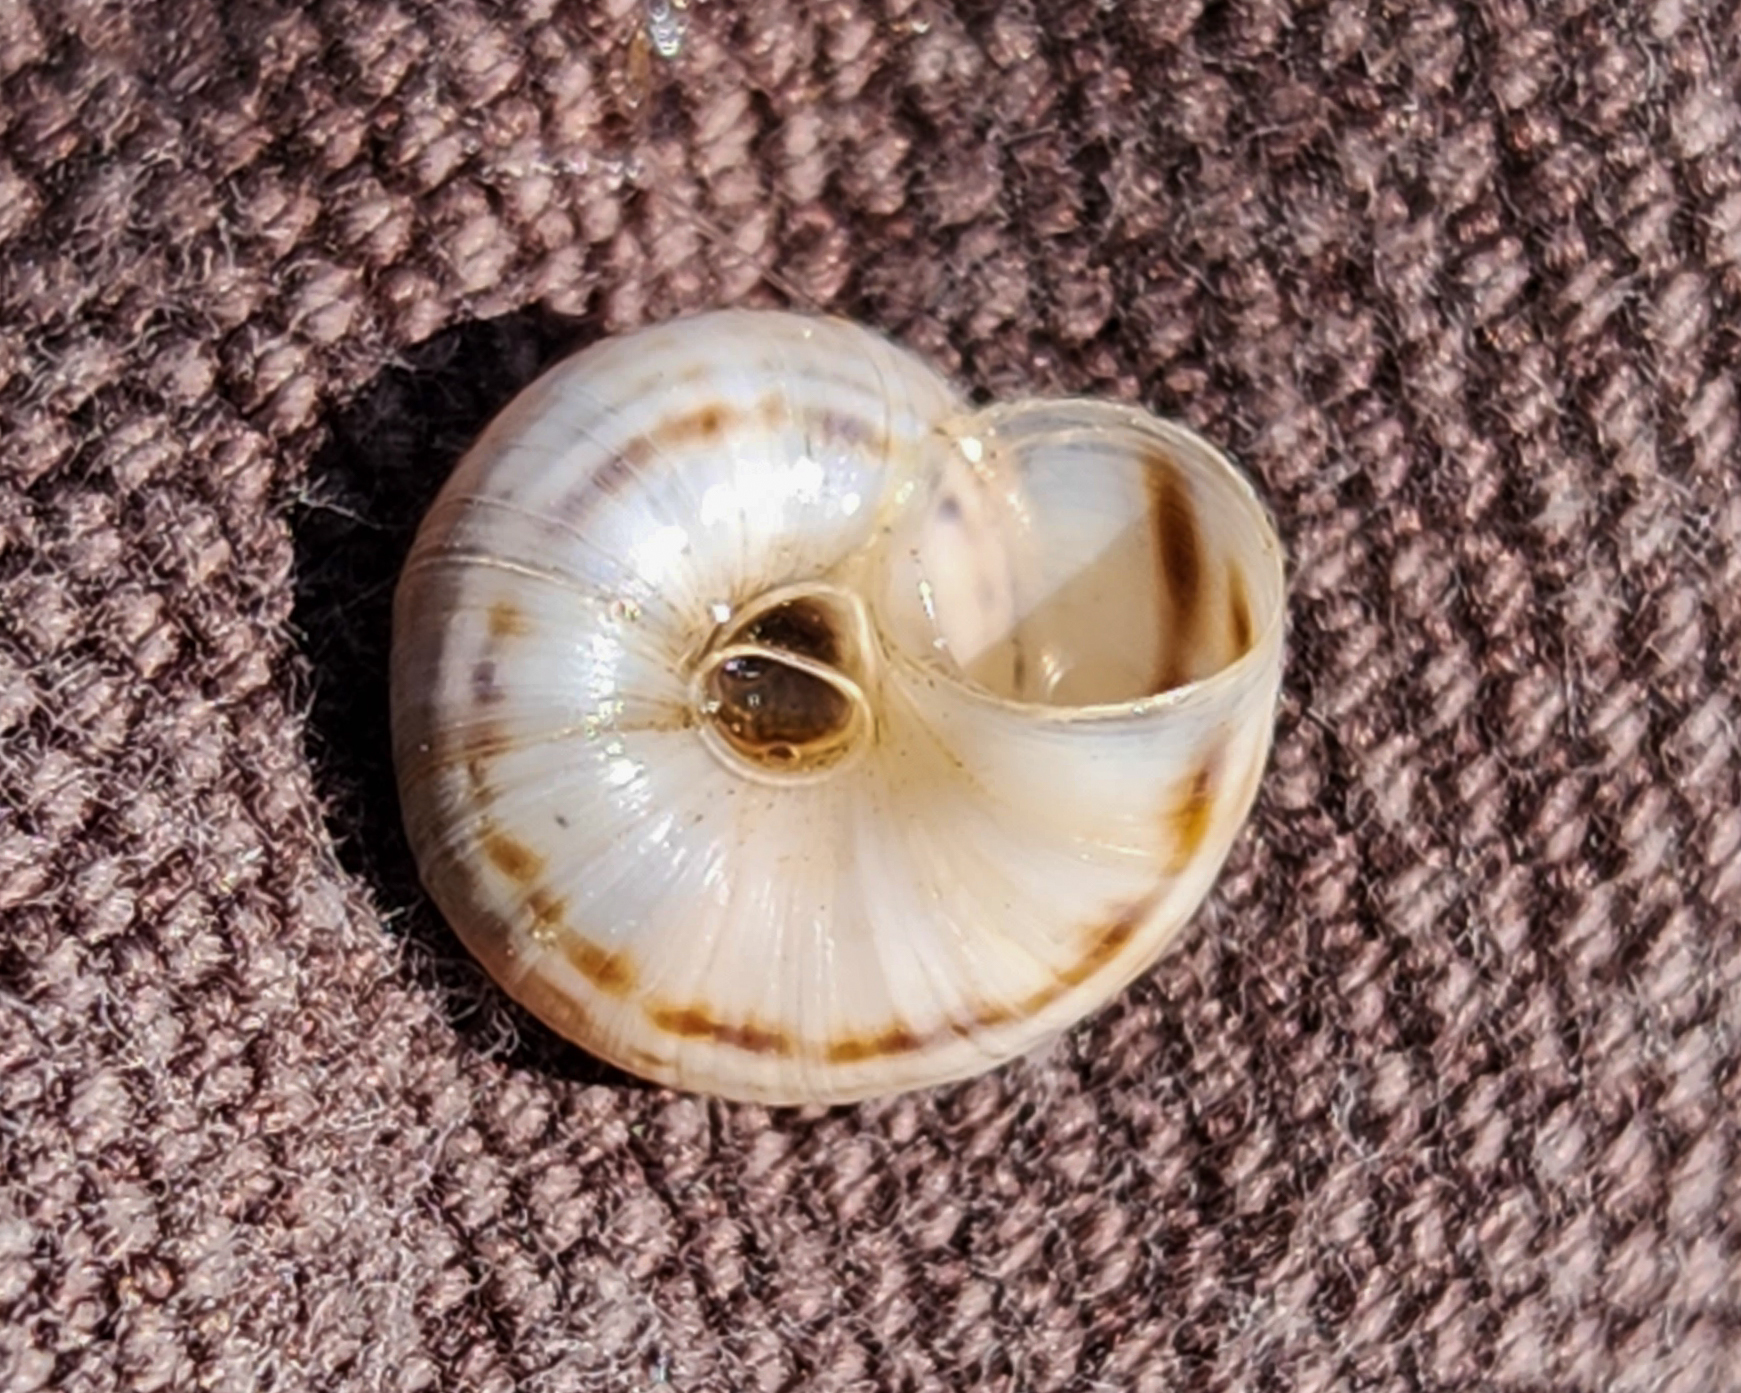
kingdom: Animalia
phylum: Mollusca
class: Gastropoda
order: Stylommatophora
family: Geomitridae
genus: Xerolenta
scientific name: Xerolenta obvia
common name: White heath snail
